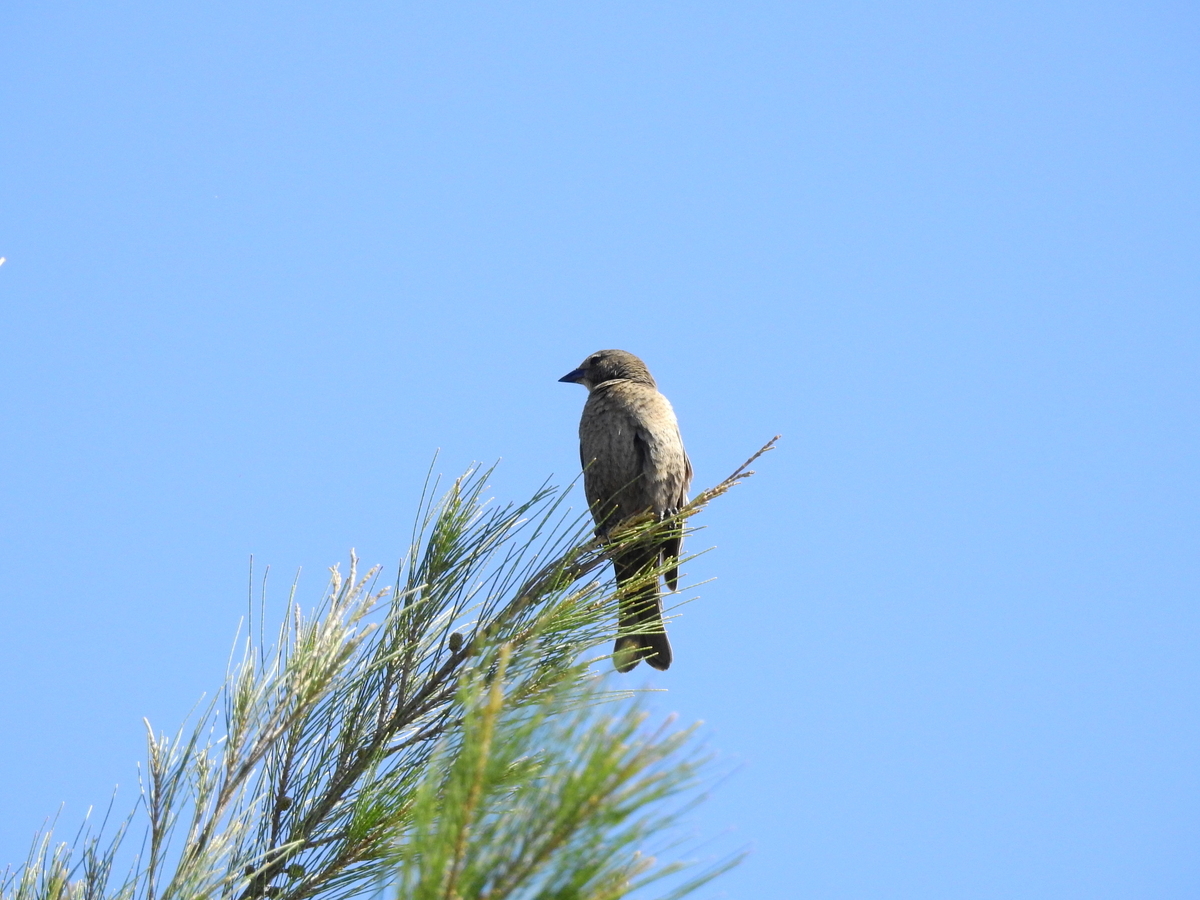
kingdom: Animalia
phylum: Chordata
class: Aves
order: Passeriformes
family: Icteridae
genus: Molothrus
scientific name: Molothrus bonariensis
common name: Shiny cowbird
